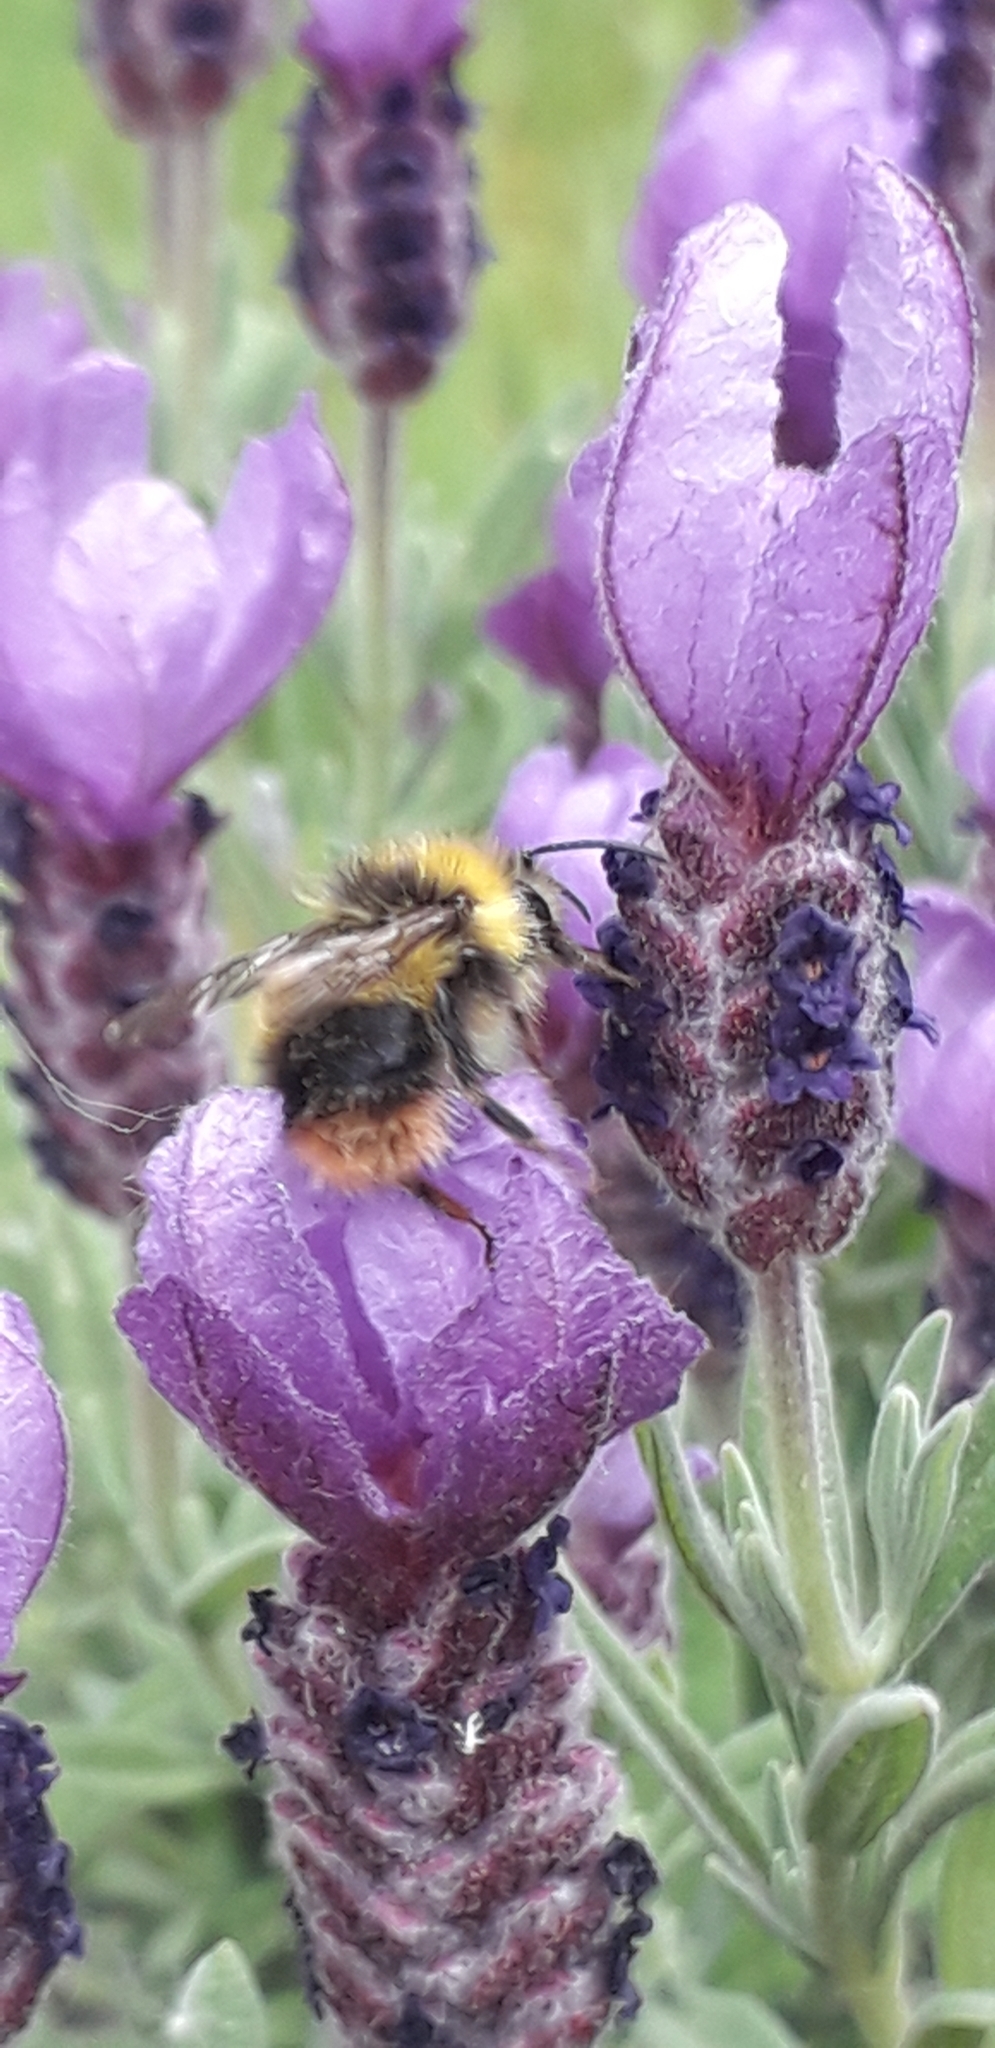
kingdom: Animalia
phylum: Arthropoda
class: Insecta
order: Hymenoptera
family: Apidae
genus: Bombus
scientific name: Bombus pratorum
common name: Early humble-bee
